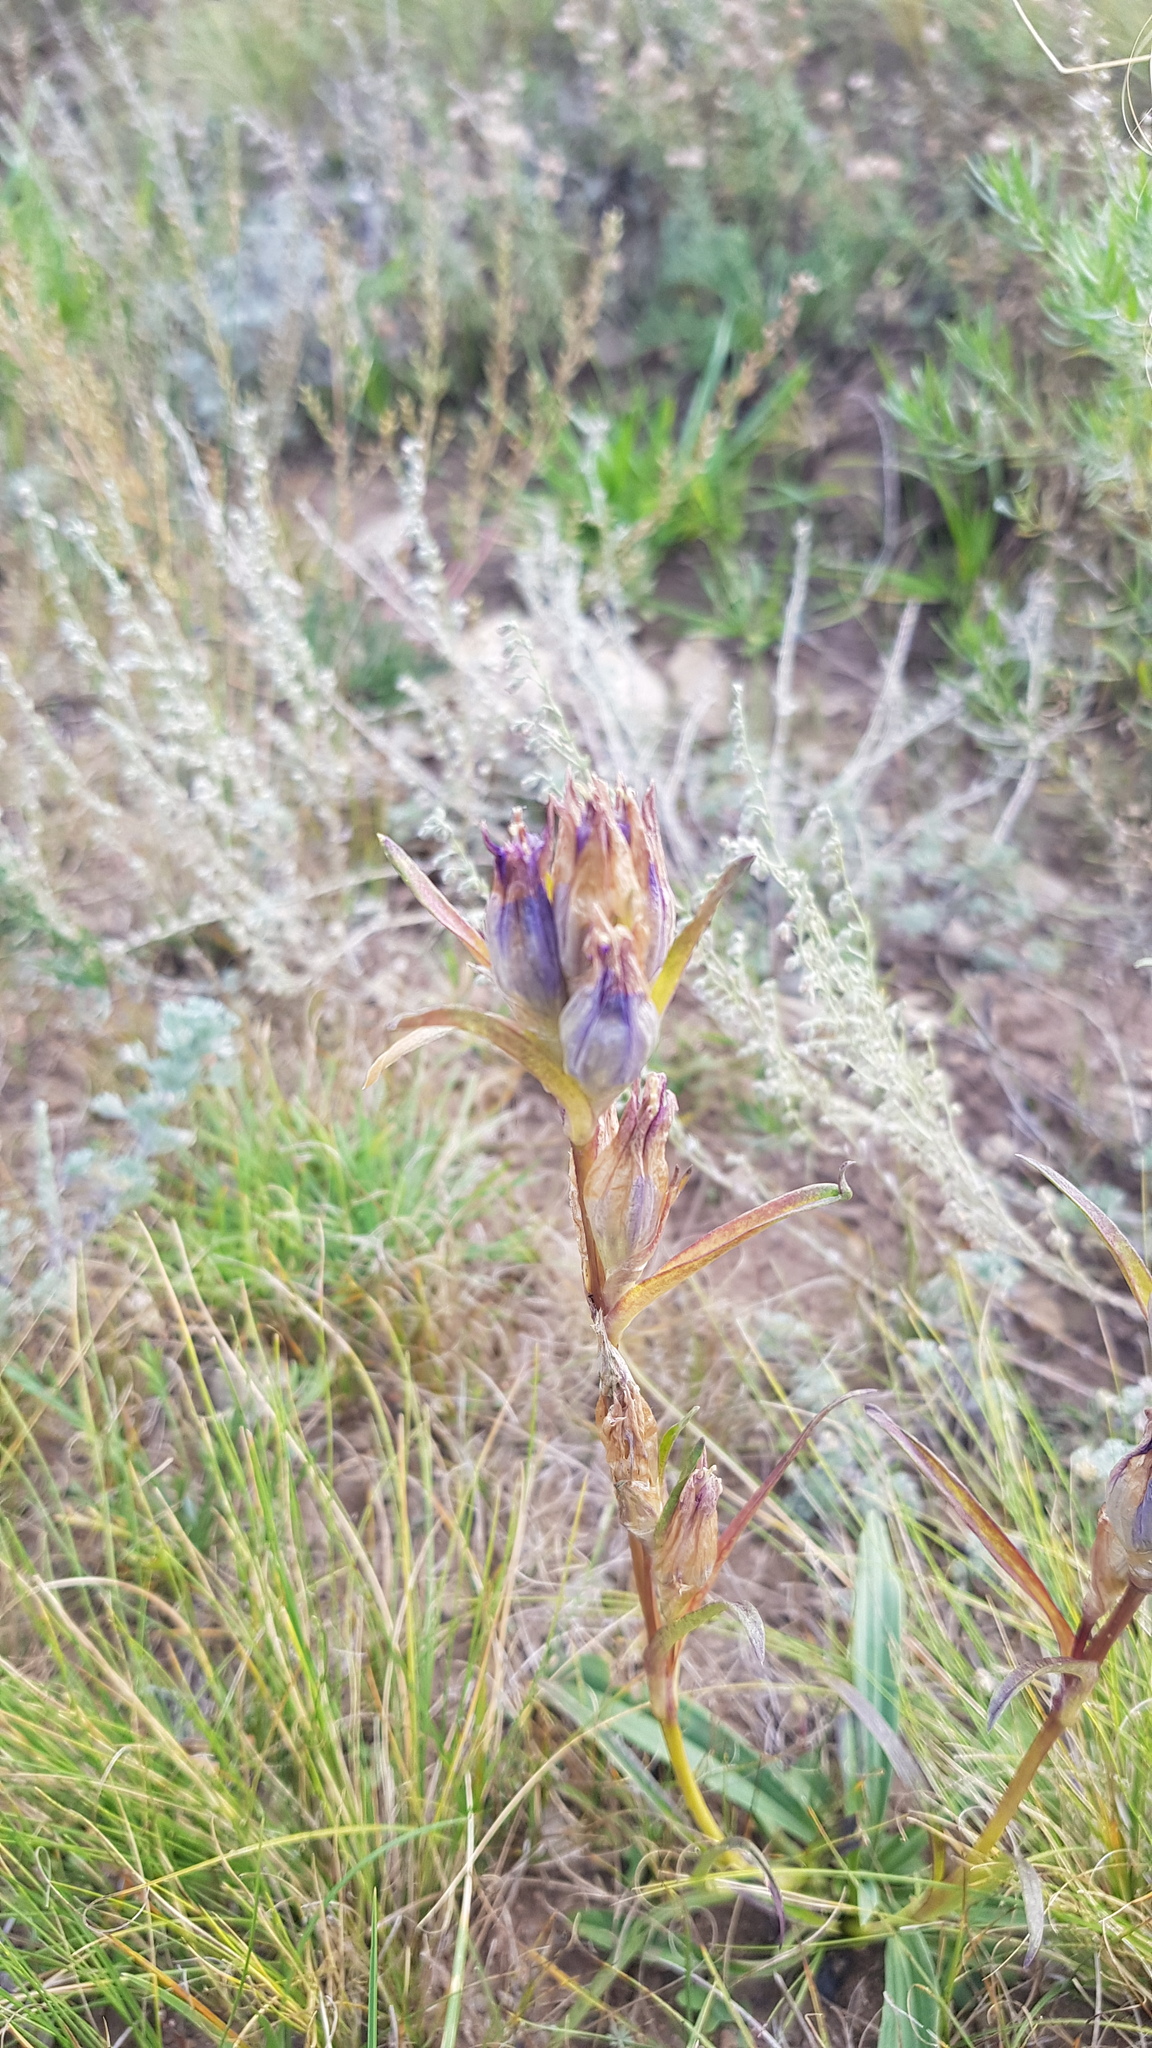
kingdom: Plantae
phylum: Tracheophyta
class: Magnoliopsida
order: Gentianales
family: Gentianaceae
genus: Gentiana
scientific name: Gentiana decumbens
